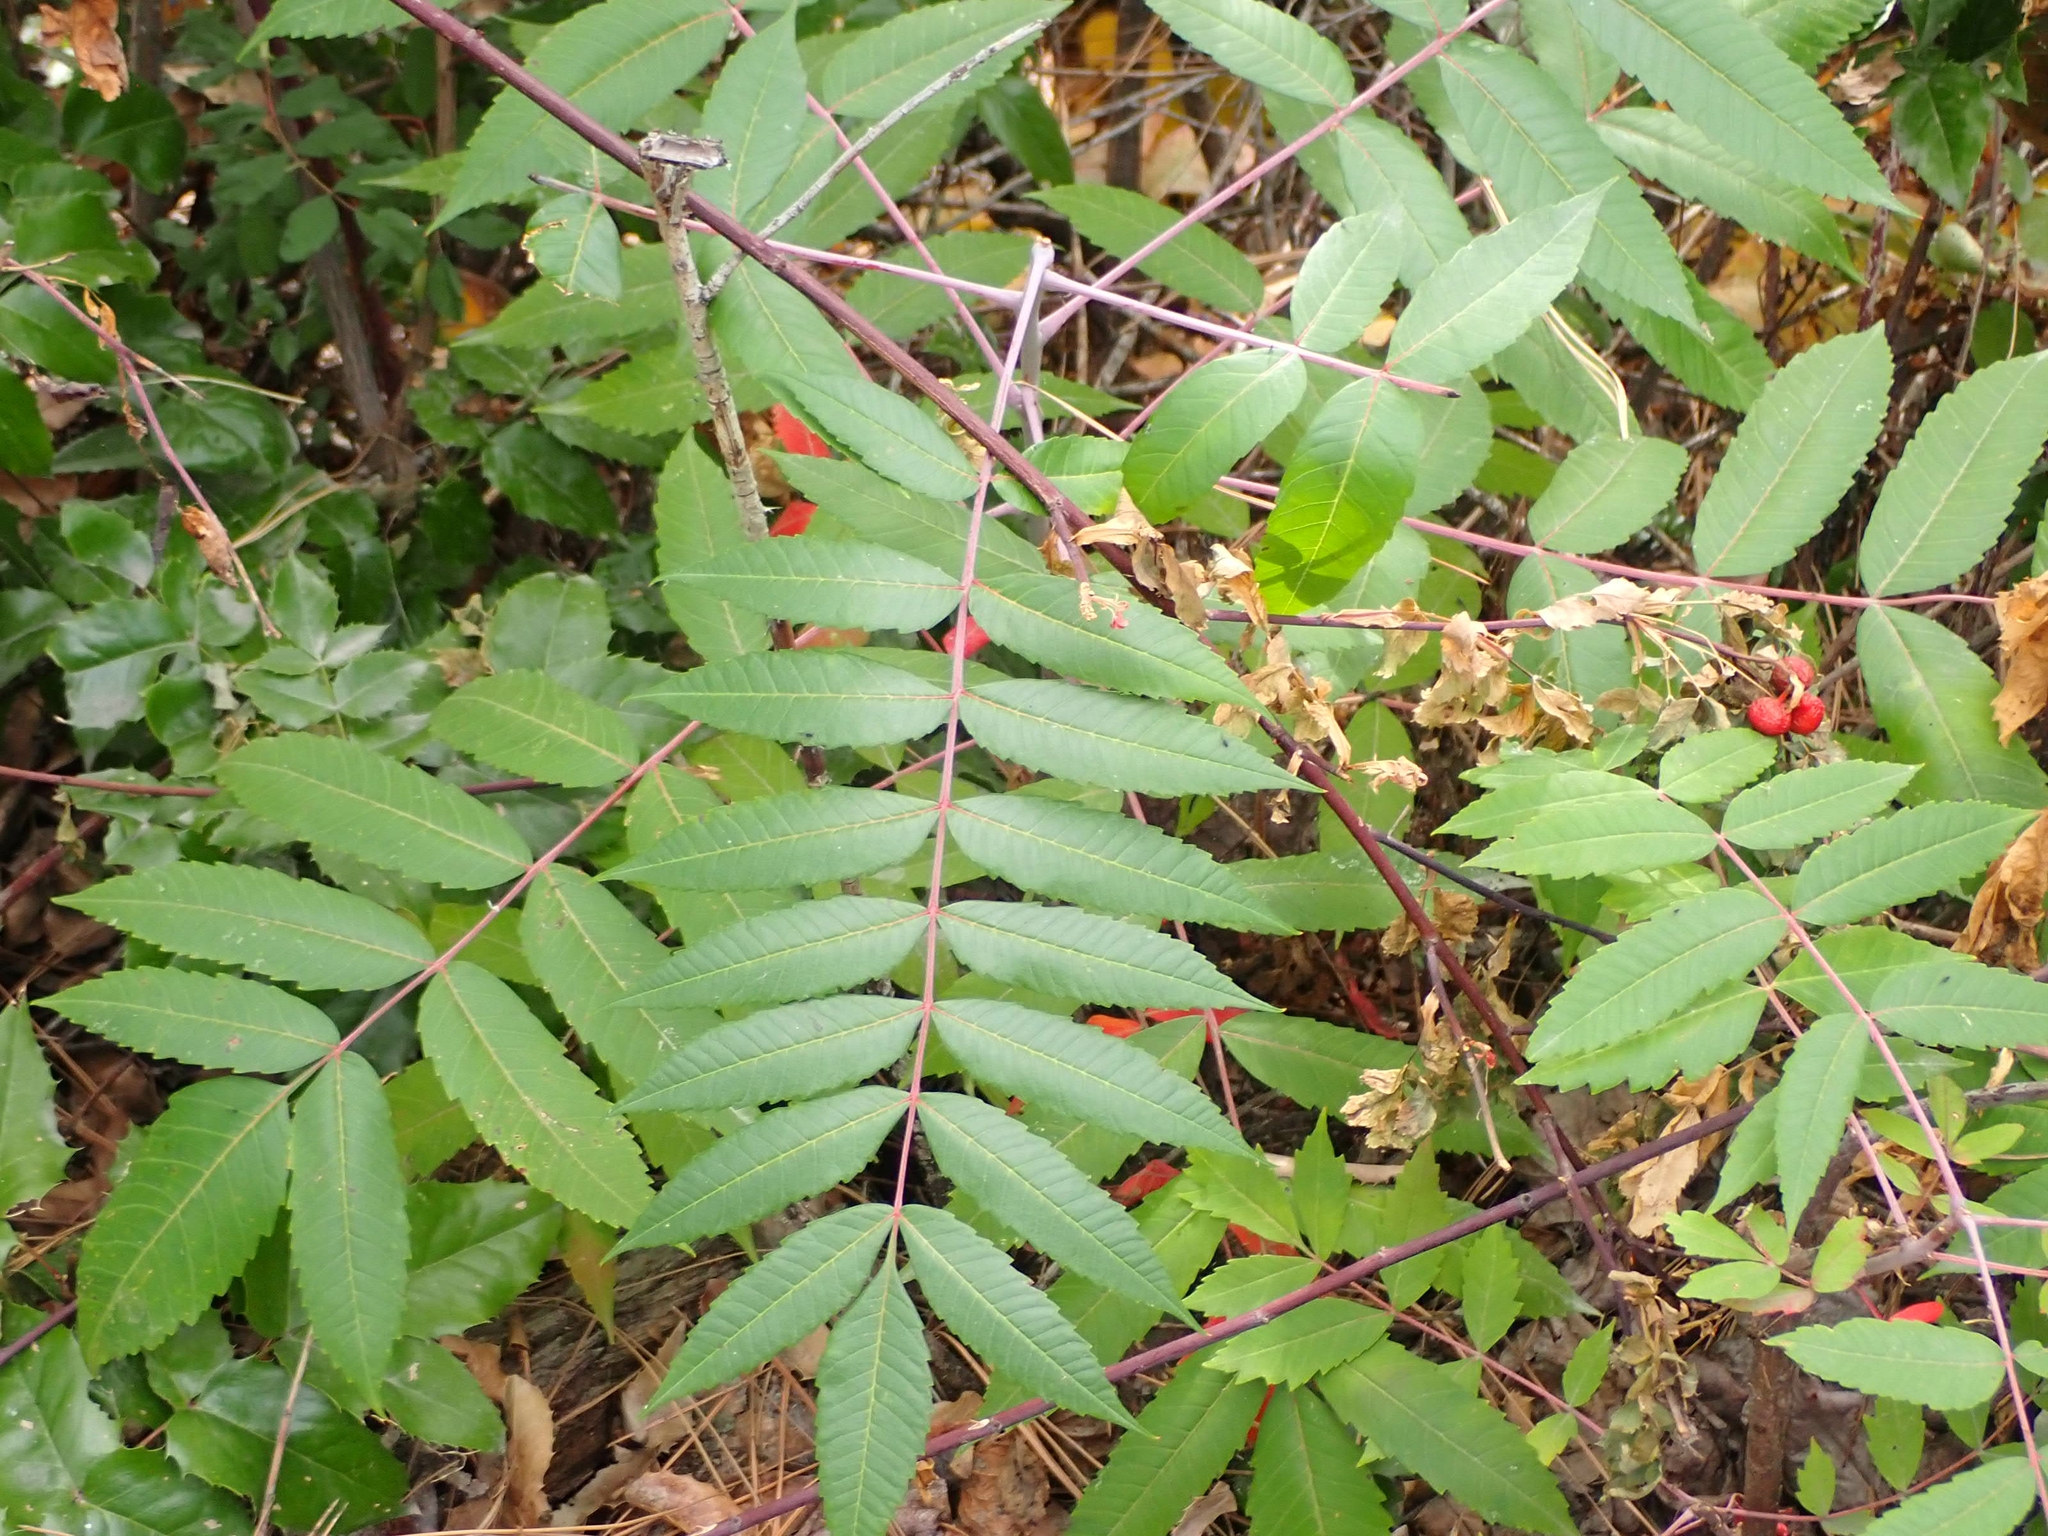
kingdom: Plantae
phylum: Tracheophyta
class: Magnoliopsida
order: Sapindales
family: Anacardiaceae
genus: Rhus
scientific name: Rhus glabra
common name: Scarlet sumac
